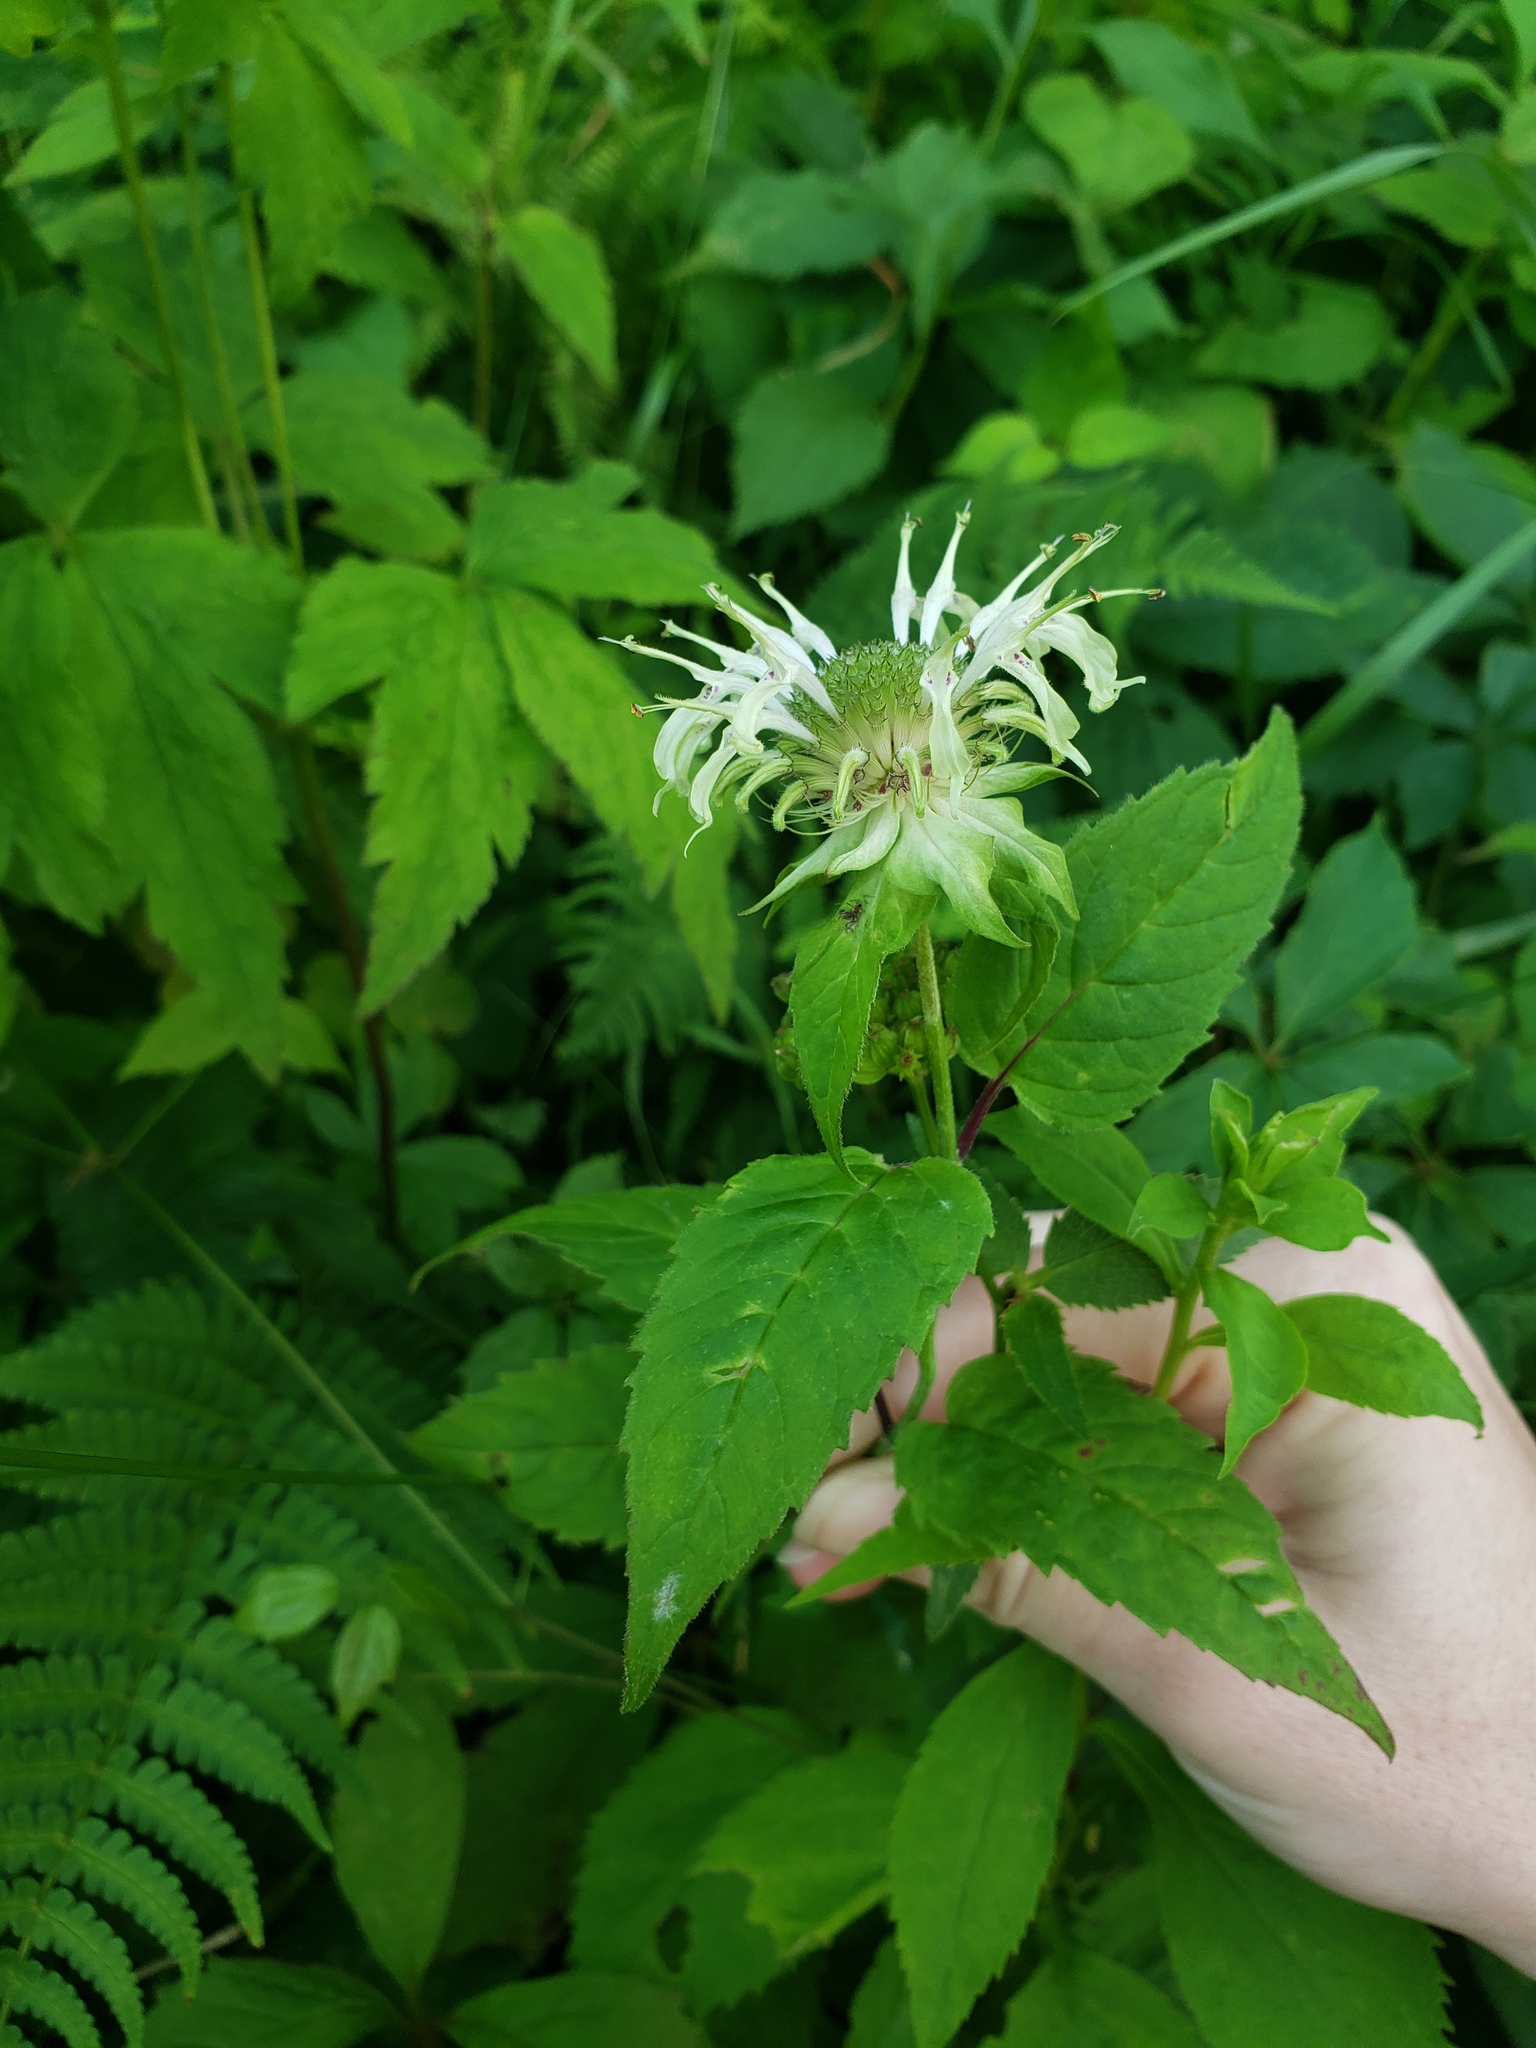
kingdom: Plantae
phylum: Tracheophyta
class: Magnoliopsida
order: Lamiales
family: Lamiaceae
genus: Monarda
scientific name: Monarda clinopodia
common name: Basil beebalm
